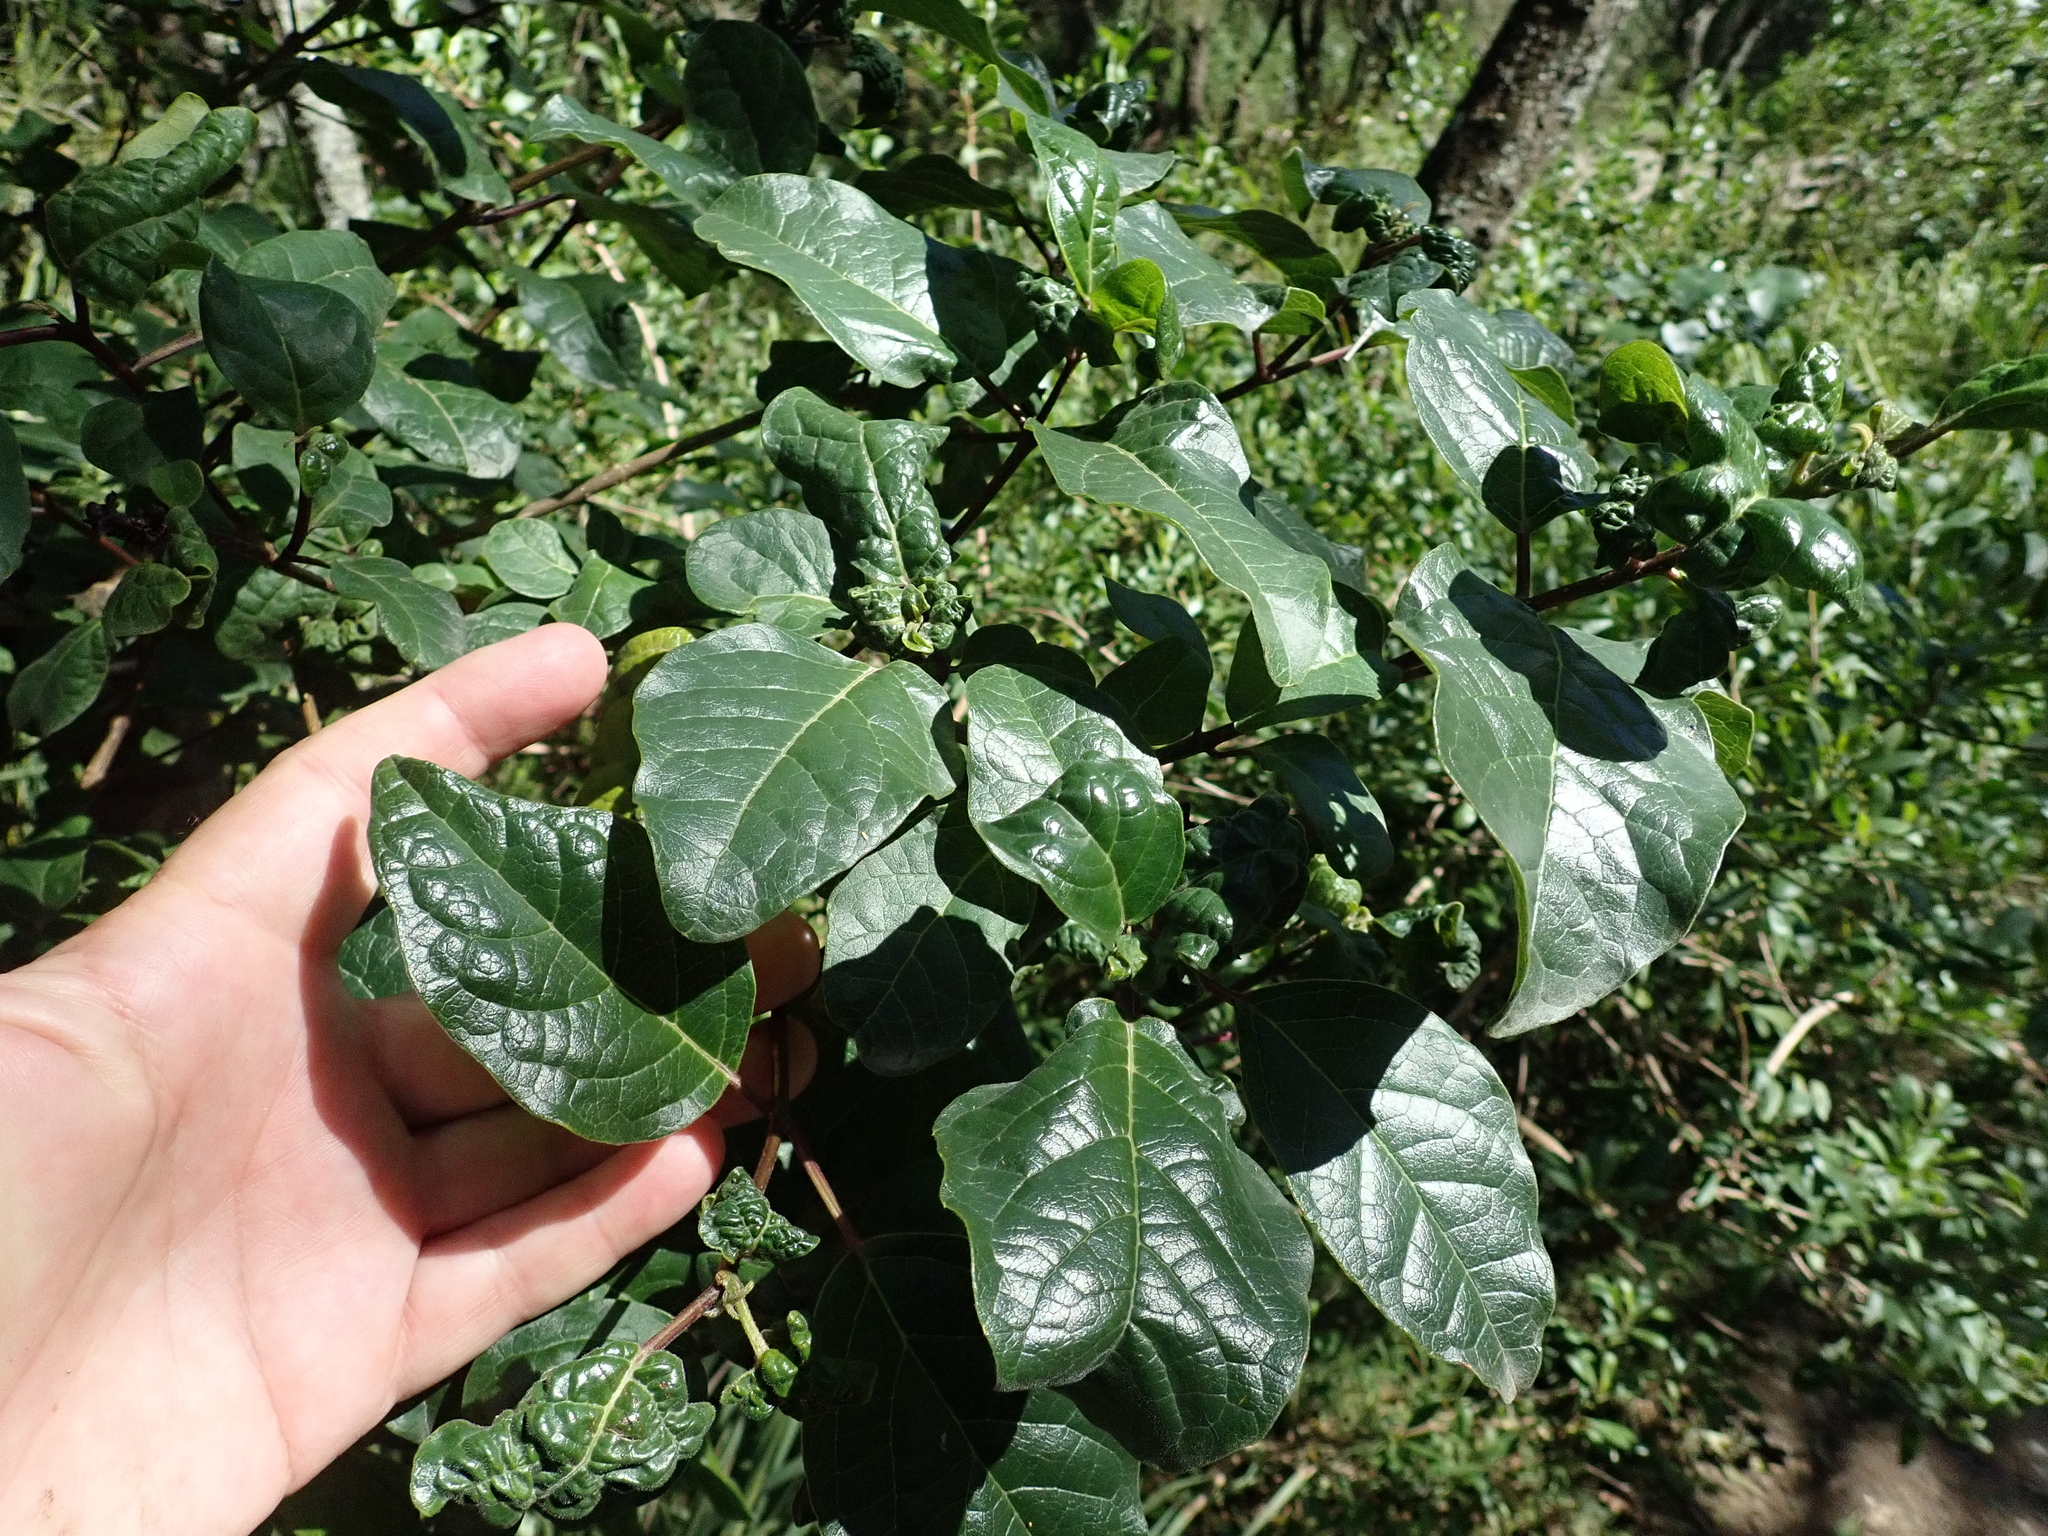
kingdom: Plantae
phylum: Tracheophyta
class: Magnoliopsida
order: Lamiales
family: Lamiaceae
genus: Clerodendrum
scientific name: Clerodendrum tomentosum
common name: Hairy clerodendrum
